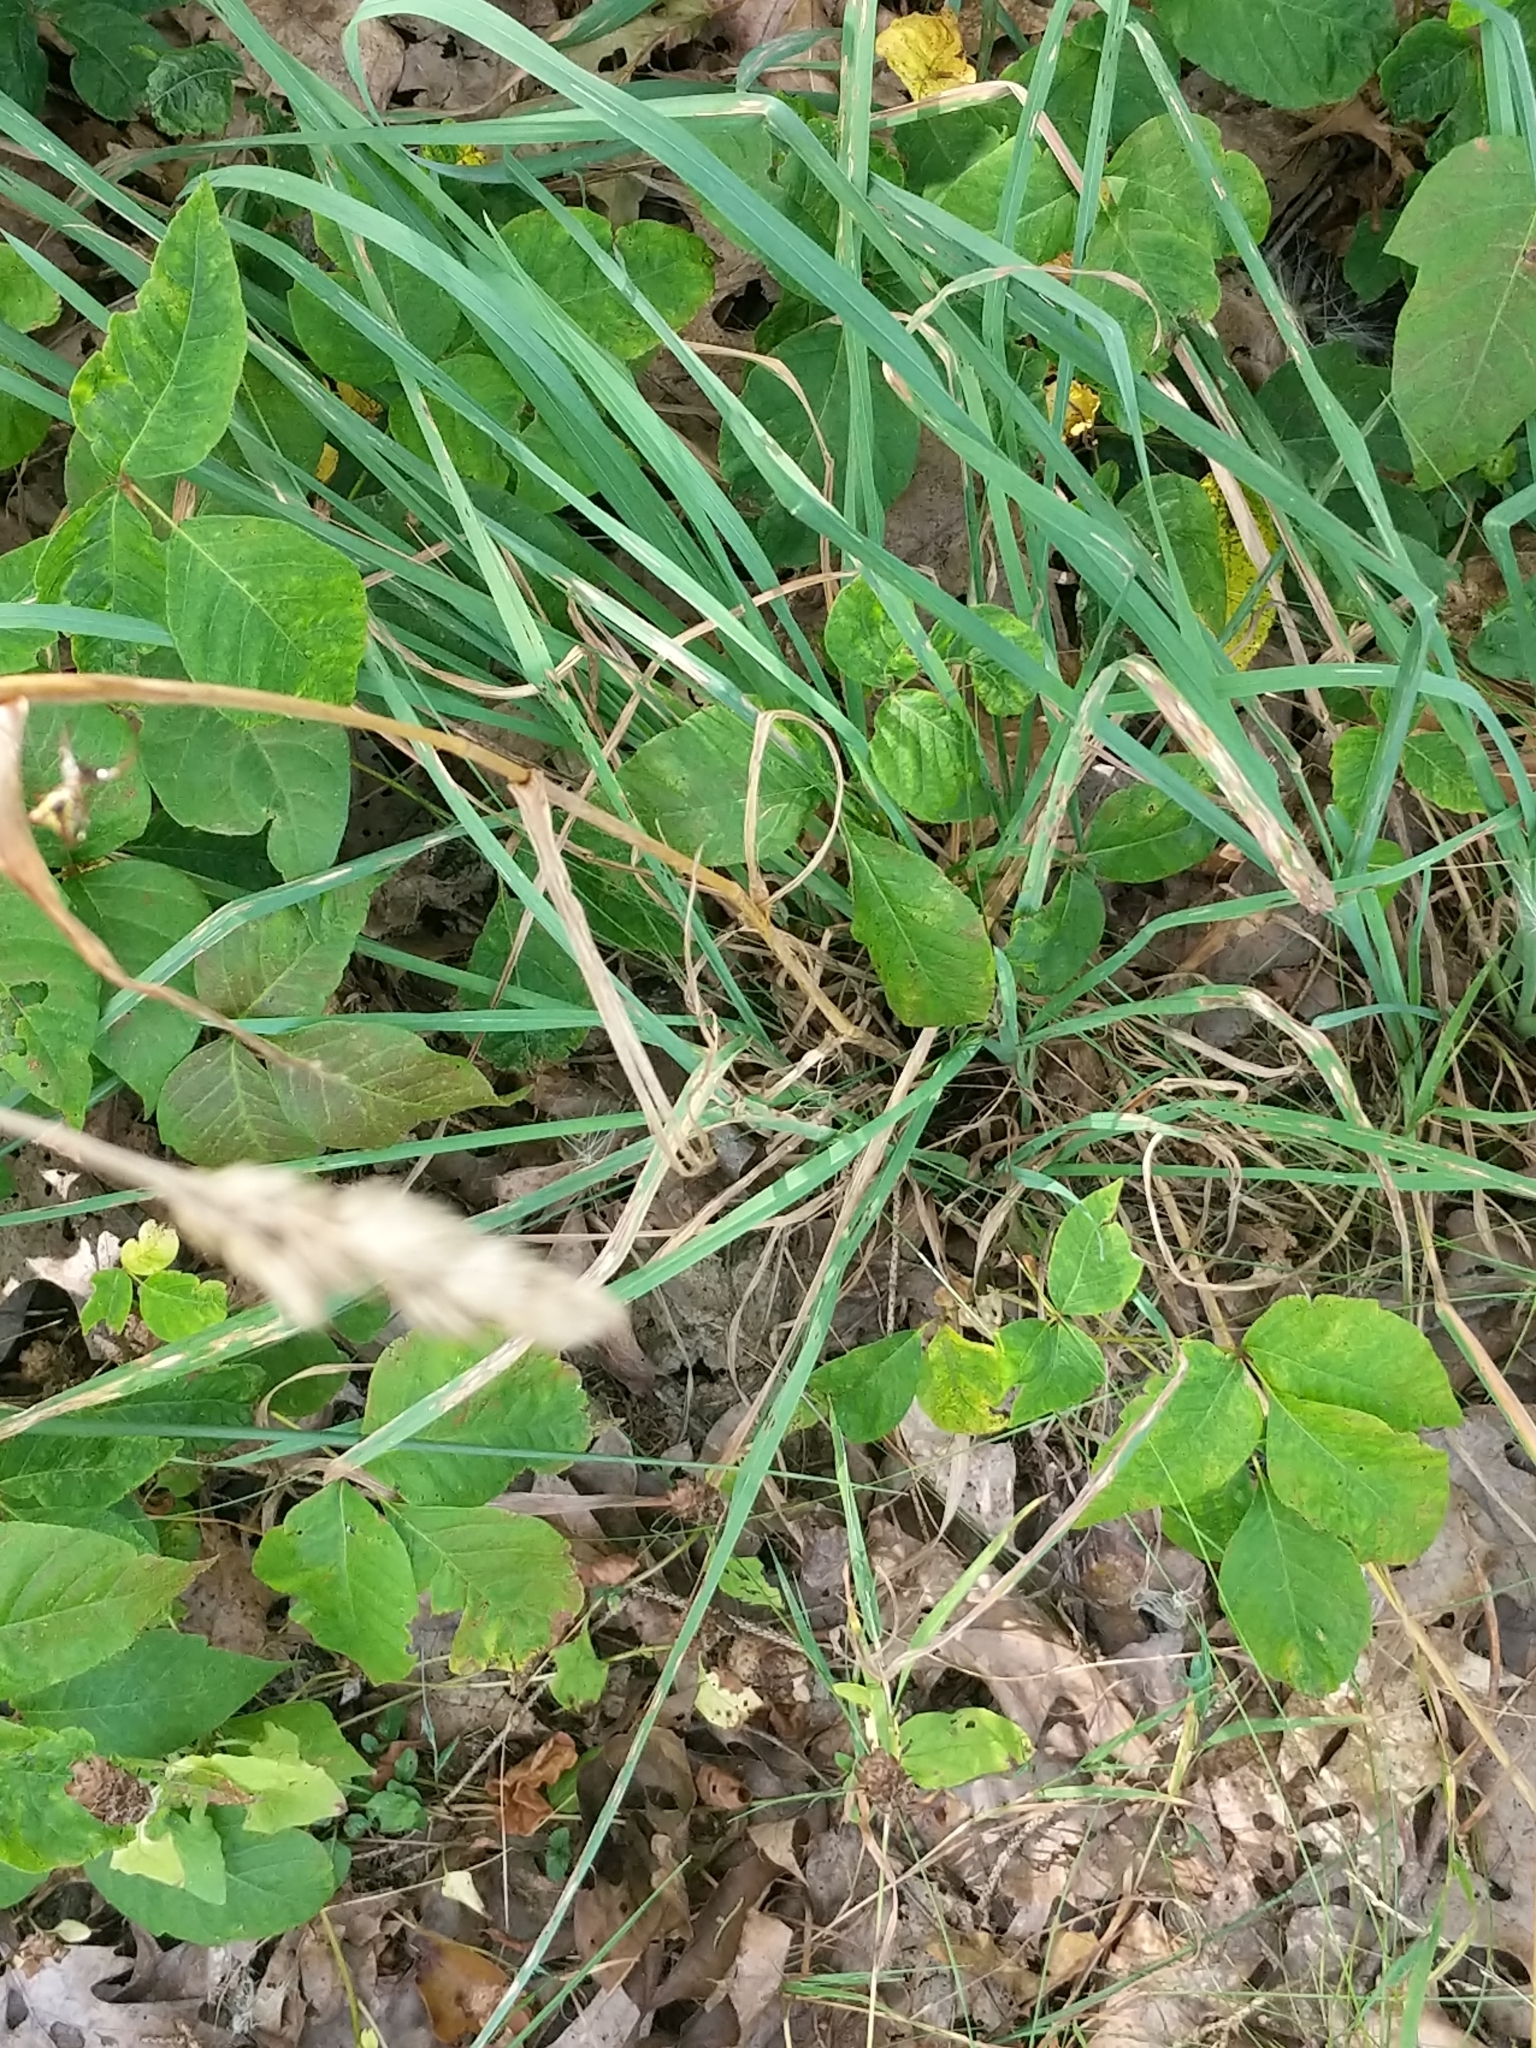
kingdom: Plantae
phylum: Tracheophyta
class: Liliopsida
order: Poales
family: Poaceae
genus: Dactylis
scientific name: Dactylis glomerata
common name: Orchardgrass
